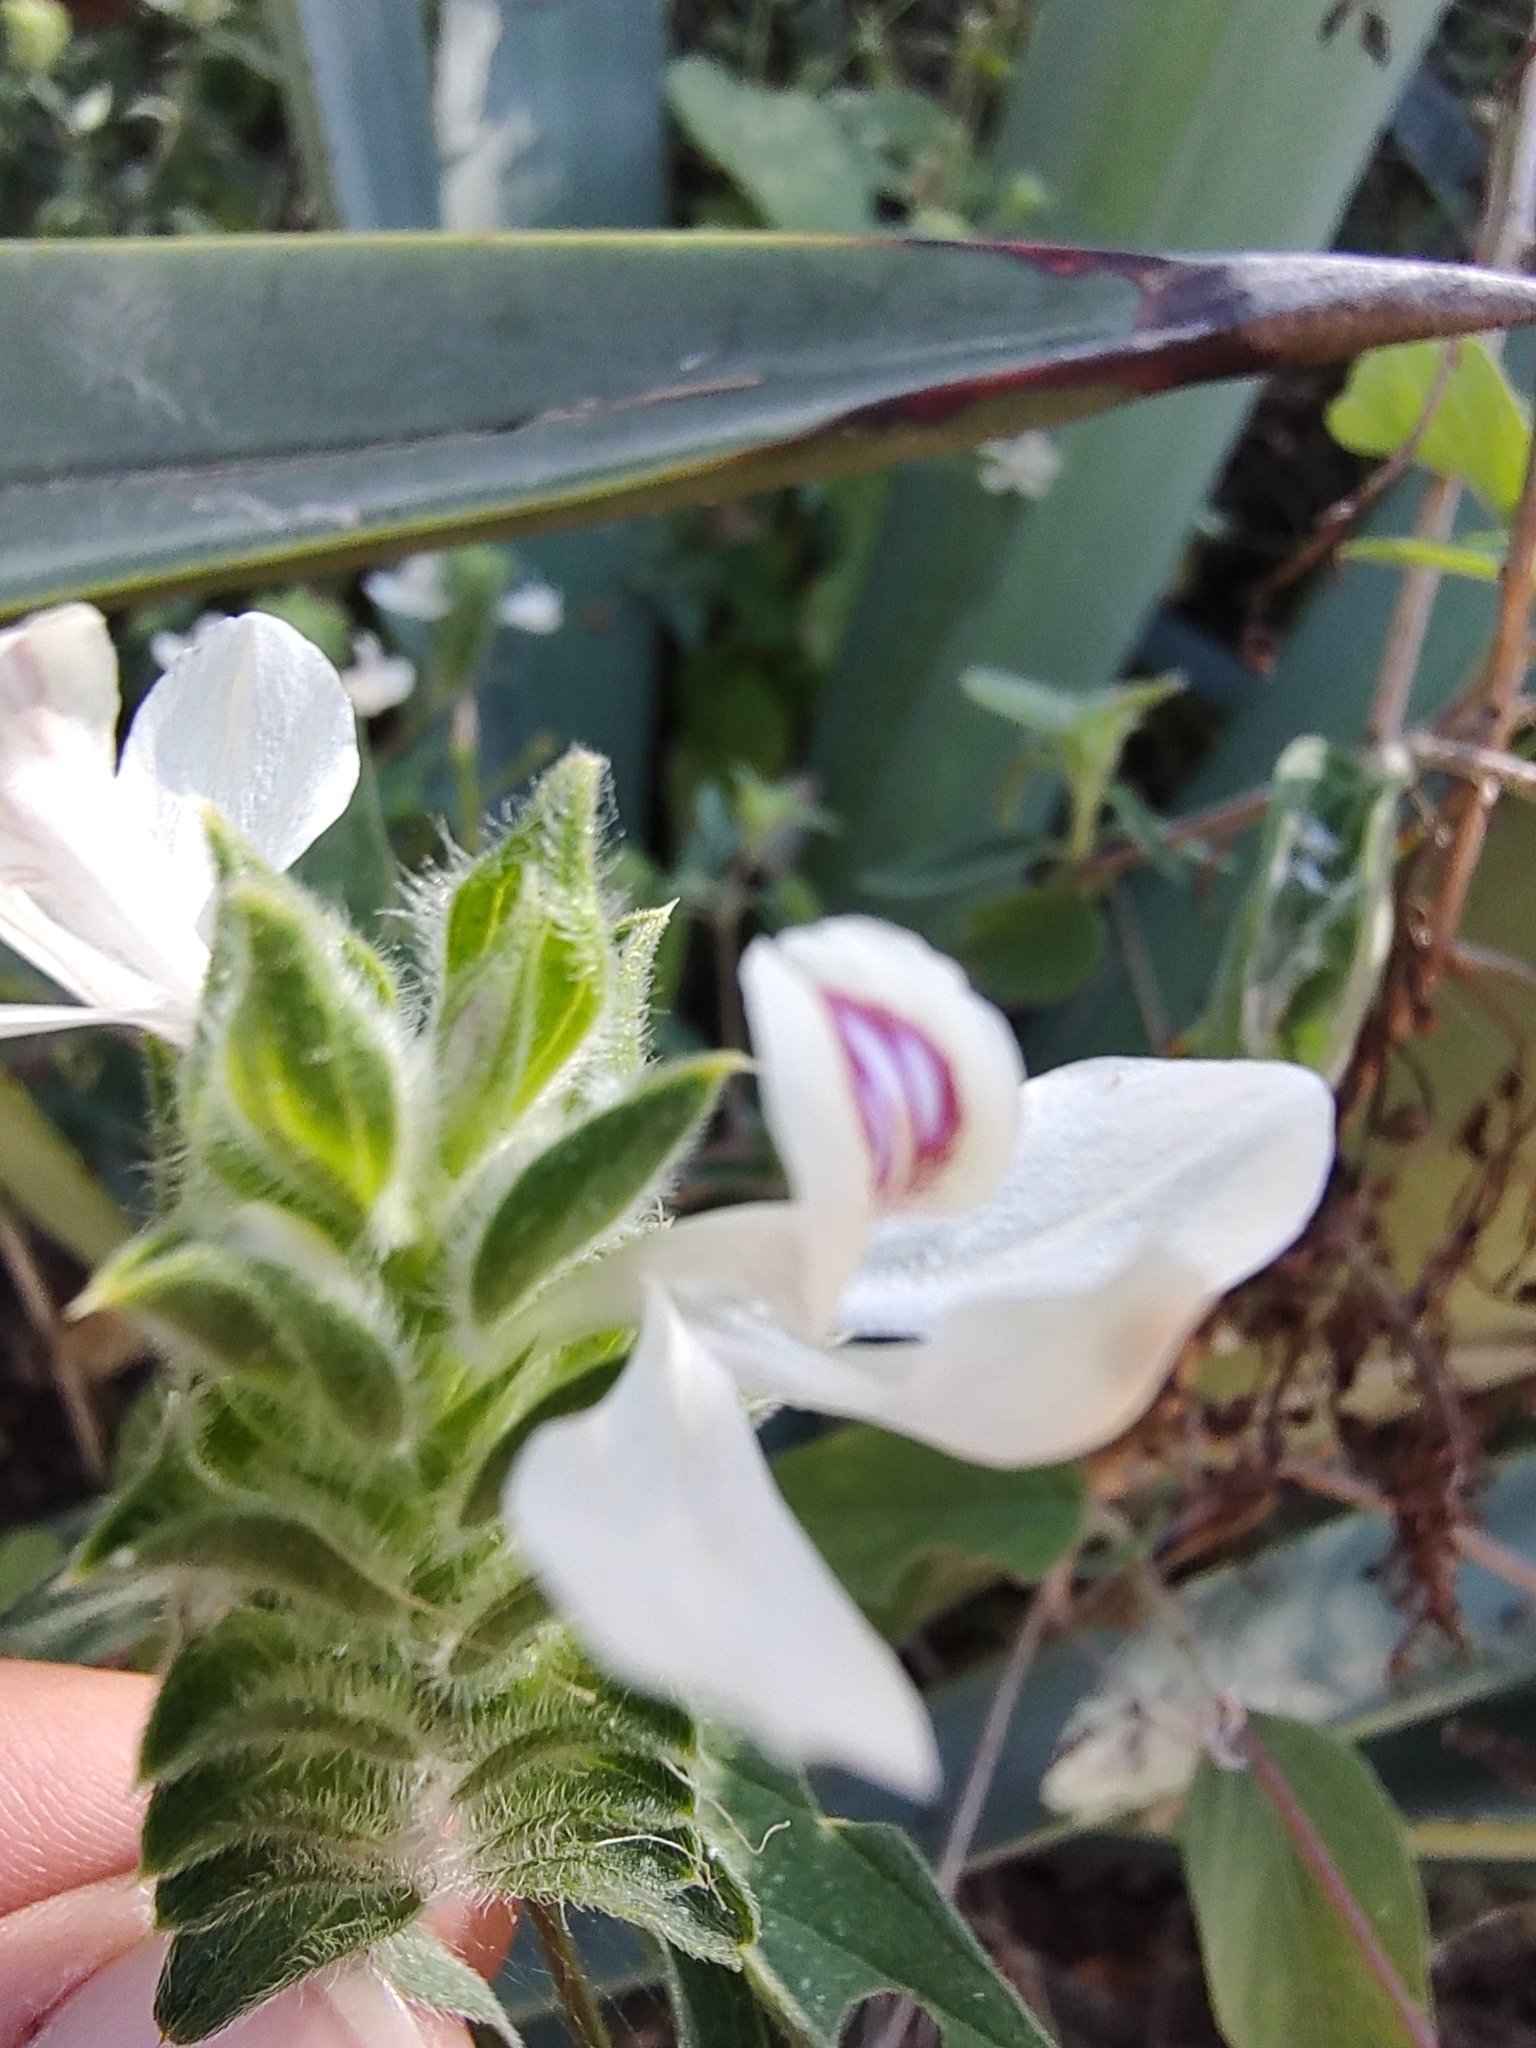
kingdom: Plantae
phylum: Tracheophyta
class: Magnoliopsida
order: Lamiales
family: Acanthaceae
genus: Tetramerium
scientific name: Tetramerium nervosum
